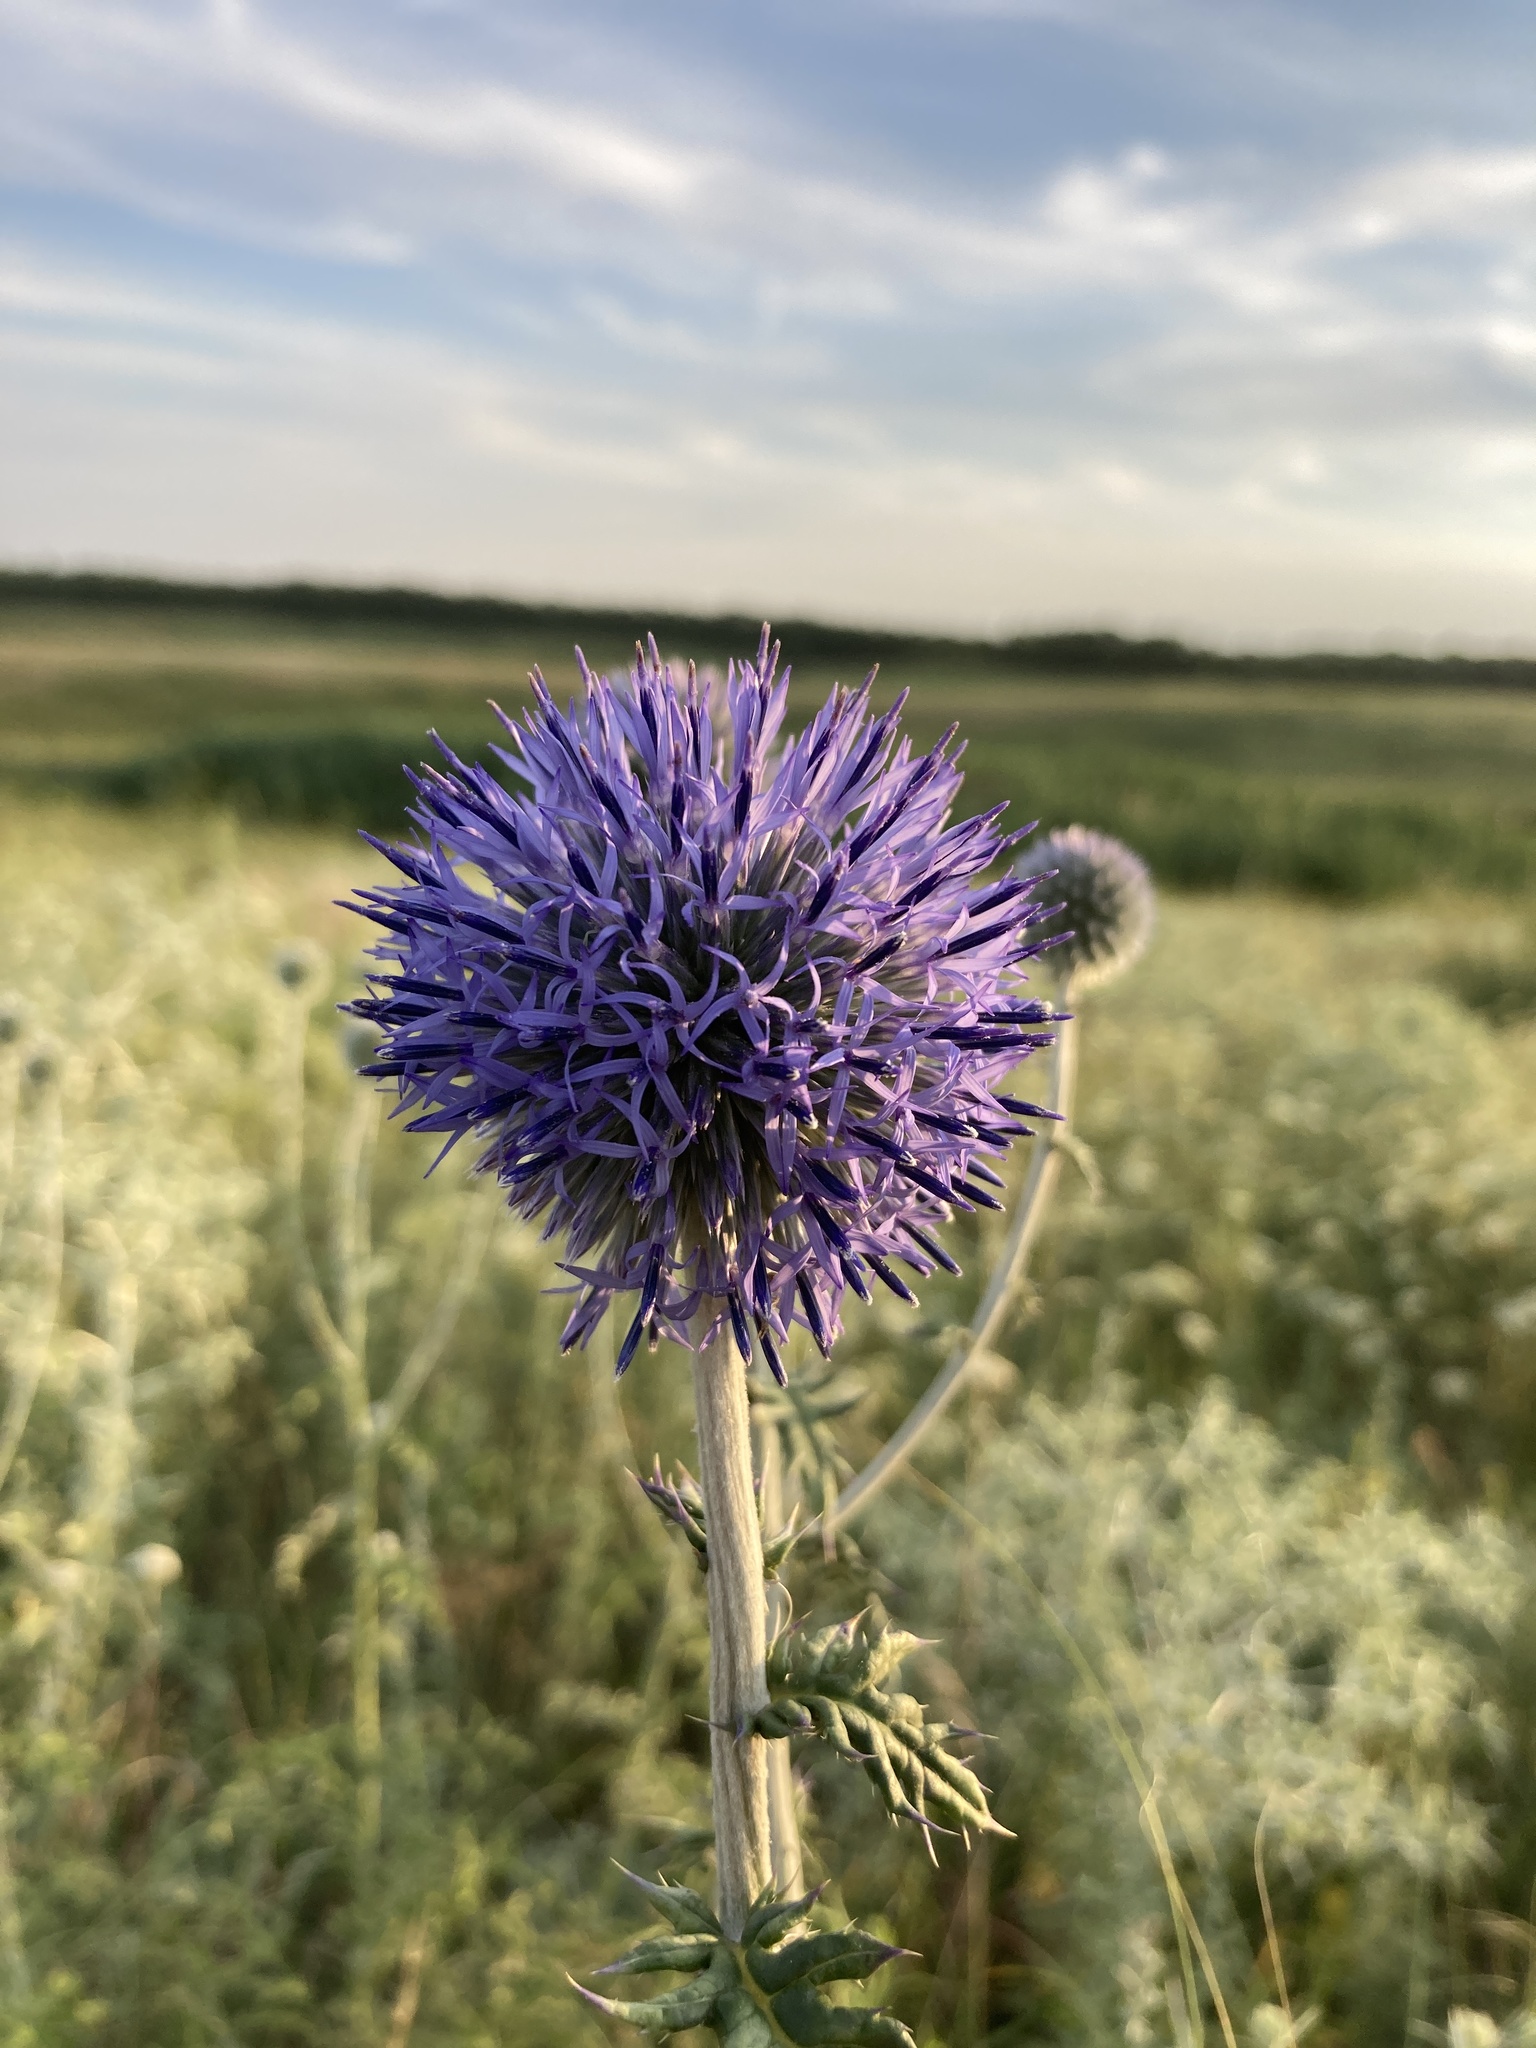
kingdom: Plantae
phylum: Tracheophyta
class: Magnoliopsida
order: Asterales
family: Asteraceae
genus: Echinops
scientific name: Echinops ritro
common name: Globe thistle
